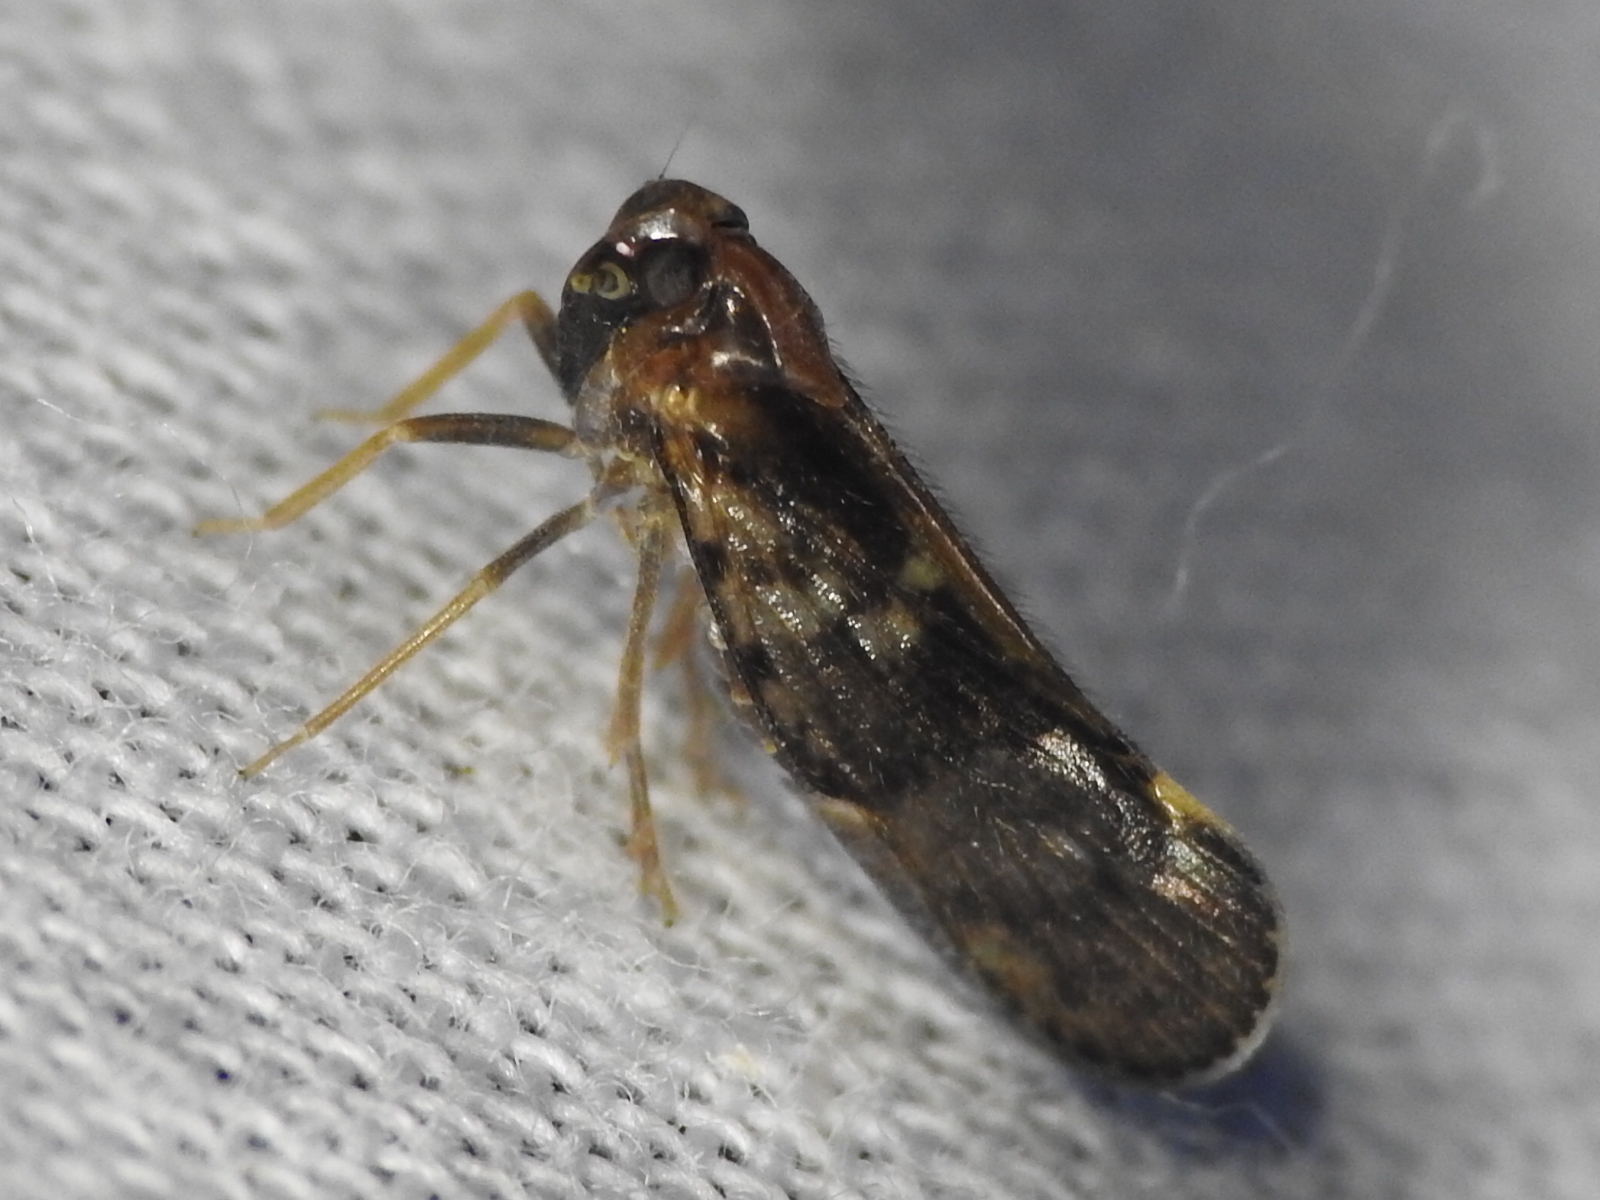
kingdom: Animalia
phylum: Arthropoda
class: Insecta
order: Hemiptera
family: Cixiidae
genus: Pintalia
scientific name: Pintalia vibex
